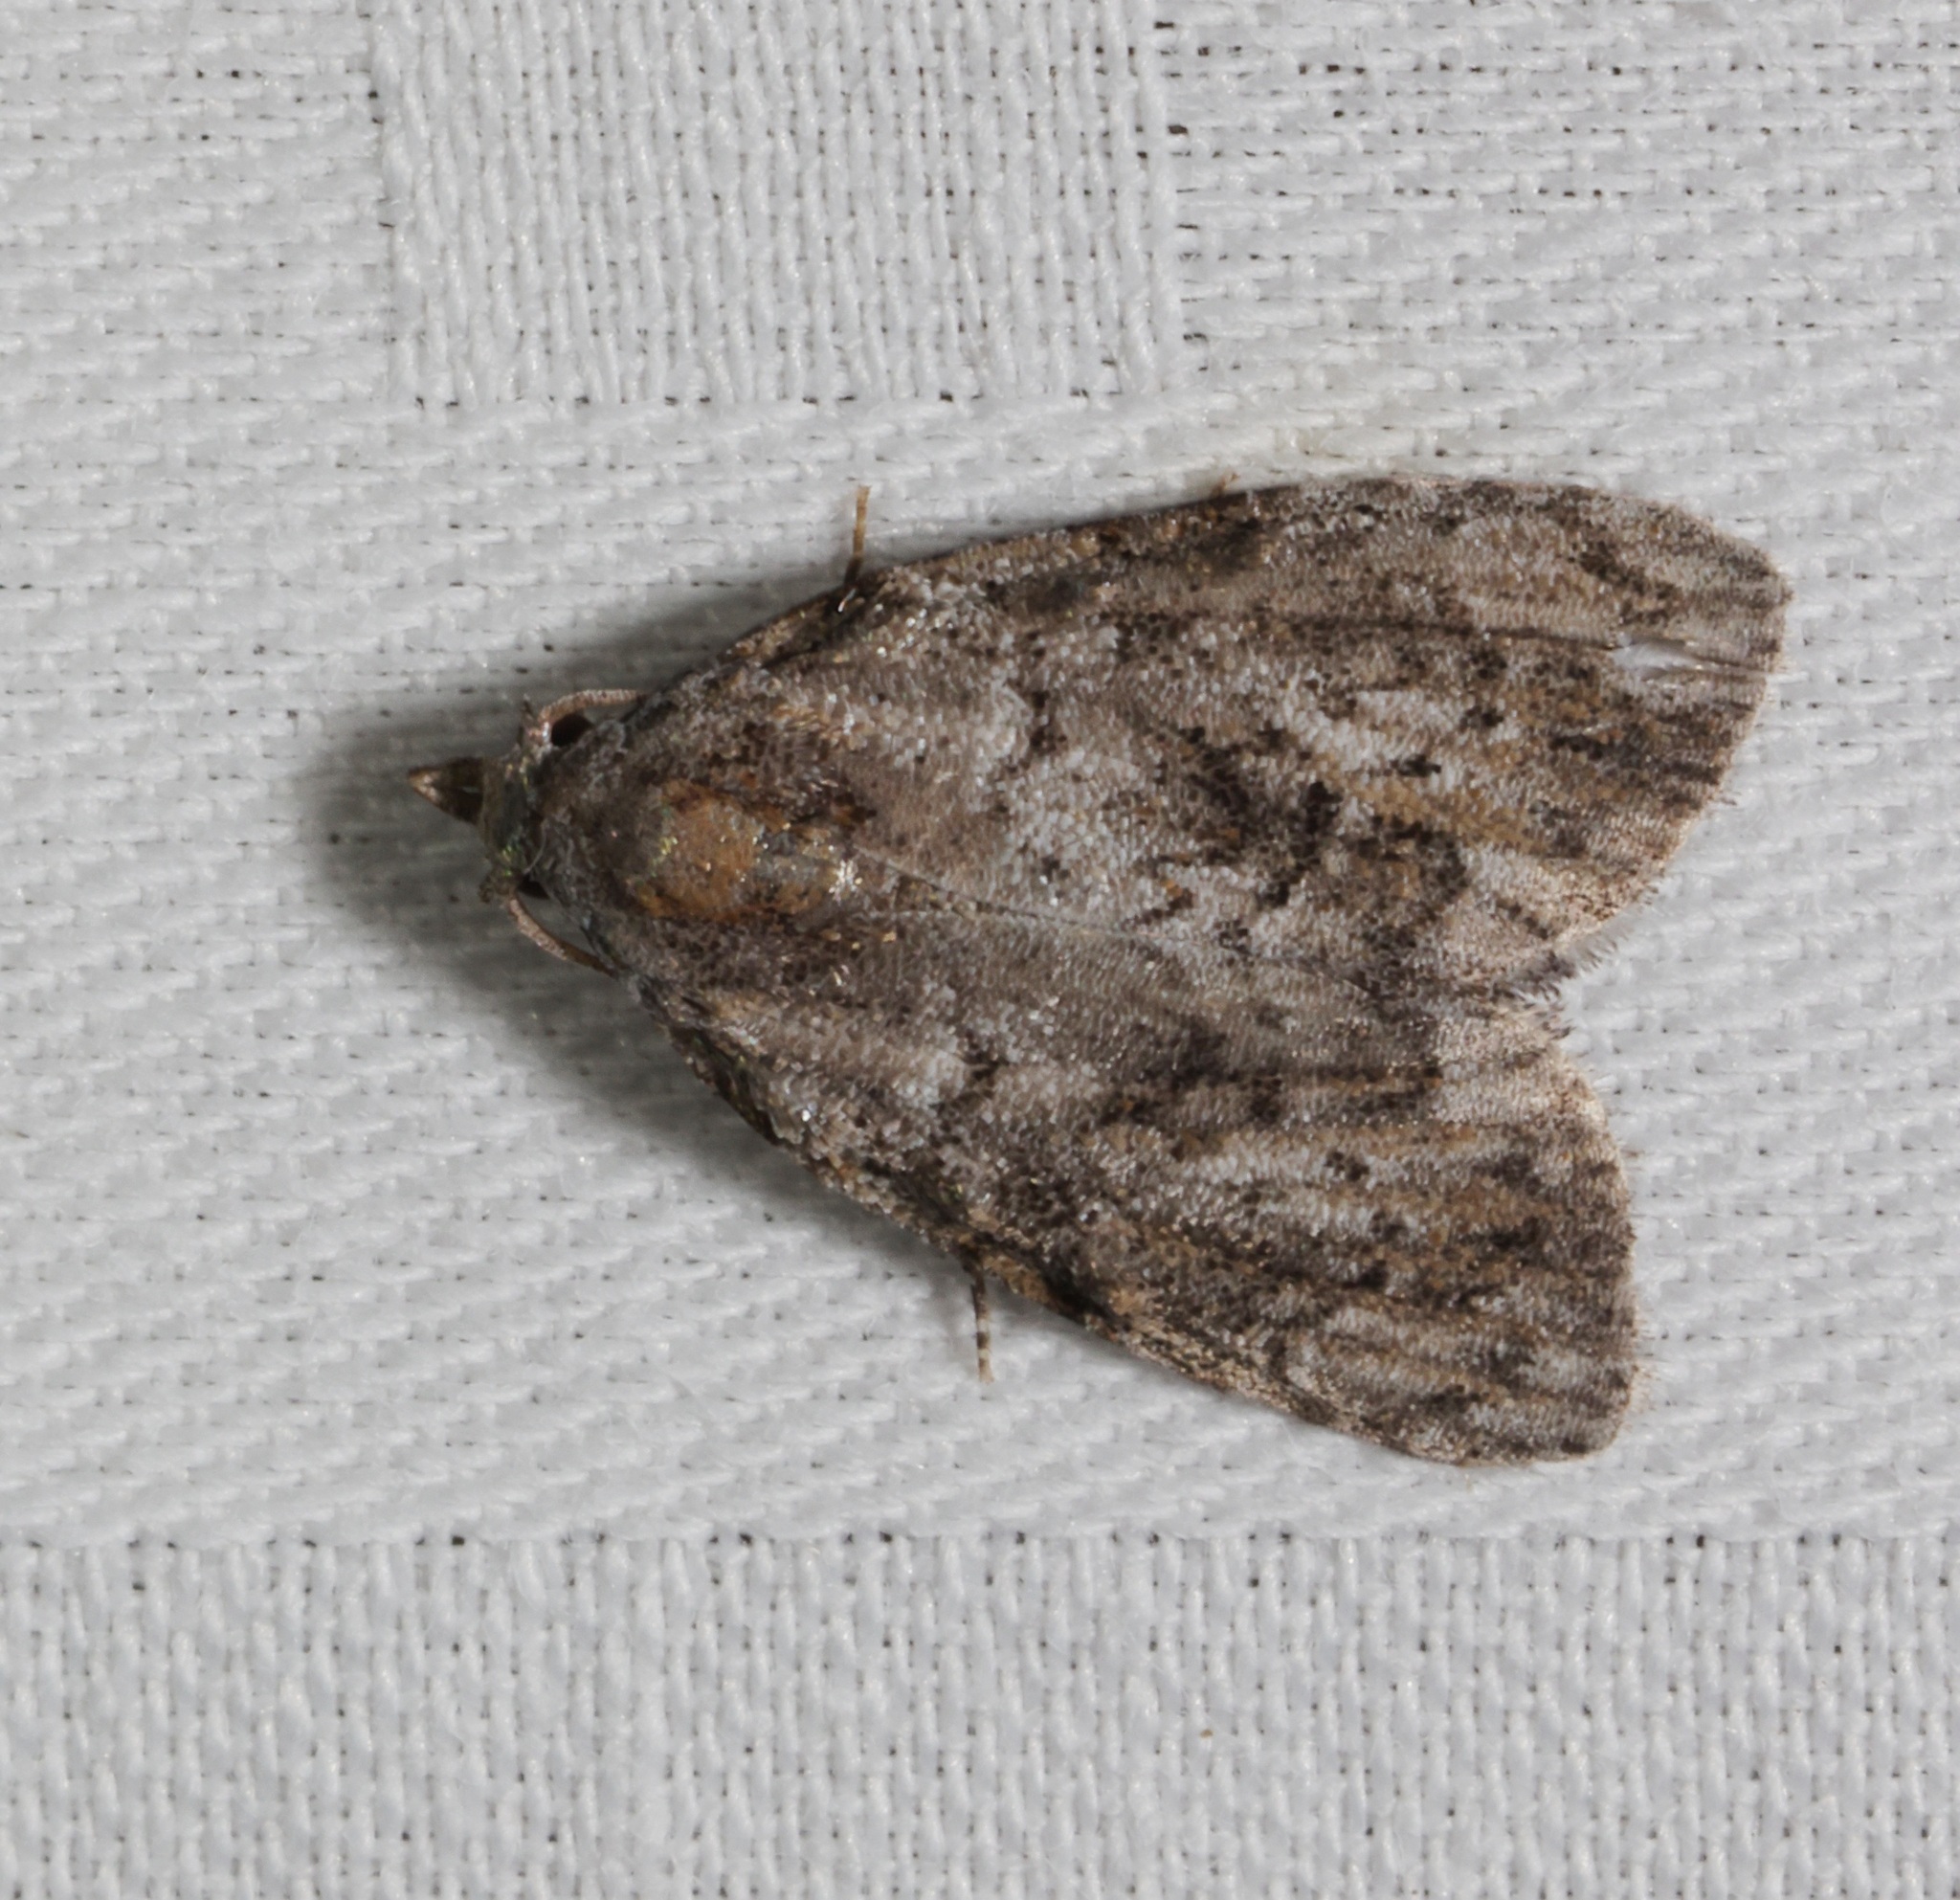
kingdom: Animalia
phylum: Arthropoda
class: Insecta
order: Lepidoptera
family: Nolidae
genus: Meganola
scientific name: Meganola zolotuhini
